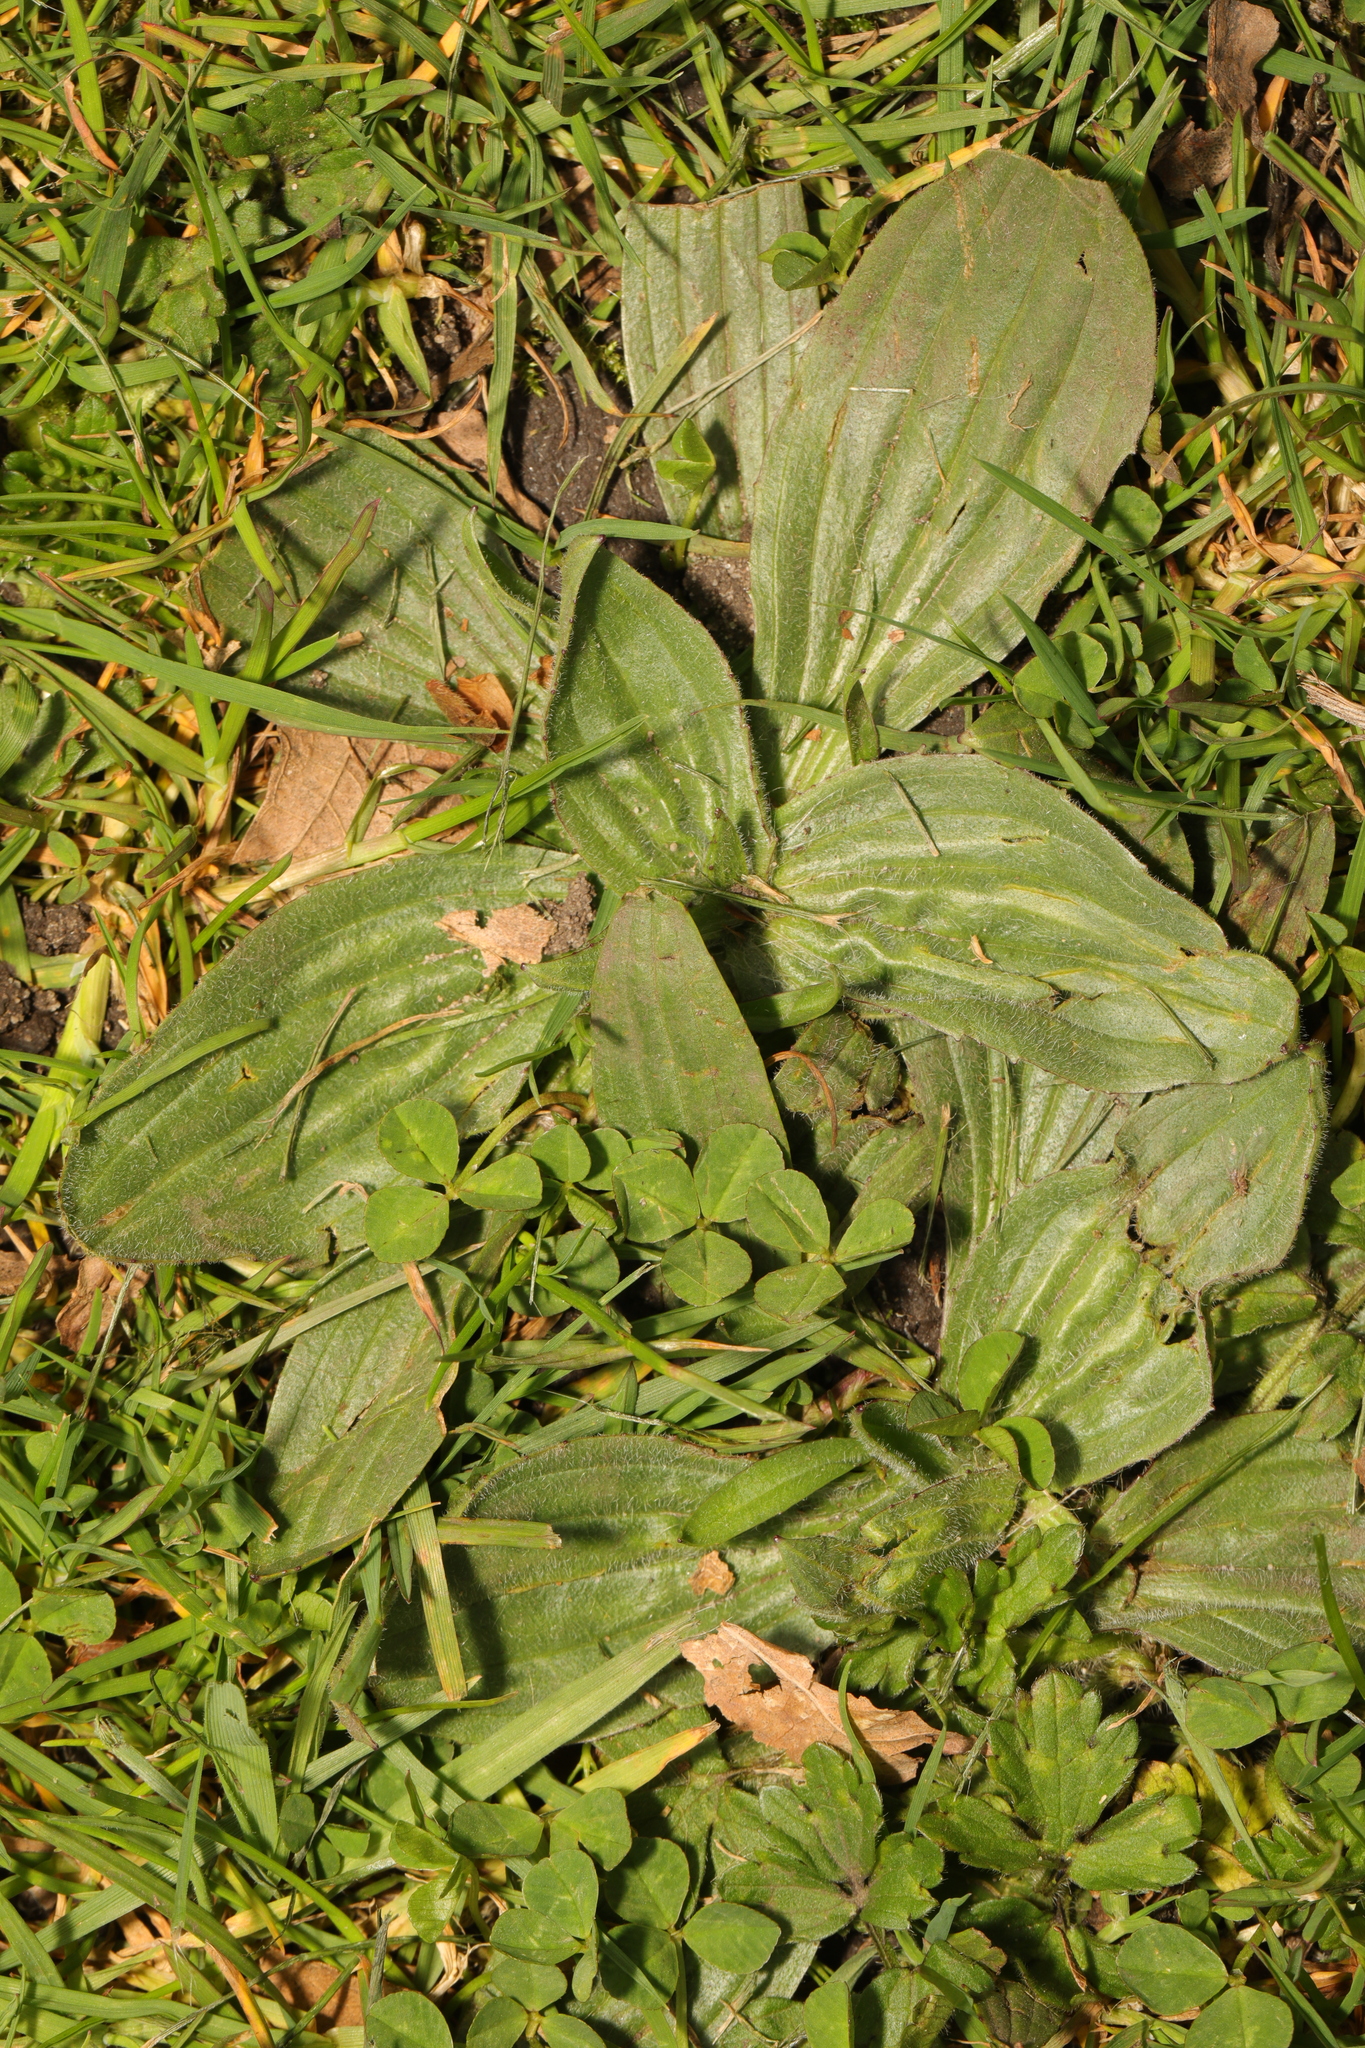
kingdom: Plantae
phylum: Tracheophyta
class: Magnoliopsida
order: Lamiales
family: Plantaginaceae
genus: Plantago
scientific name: Plantago lanceolata
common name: Ribwort plantain
